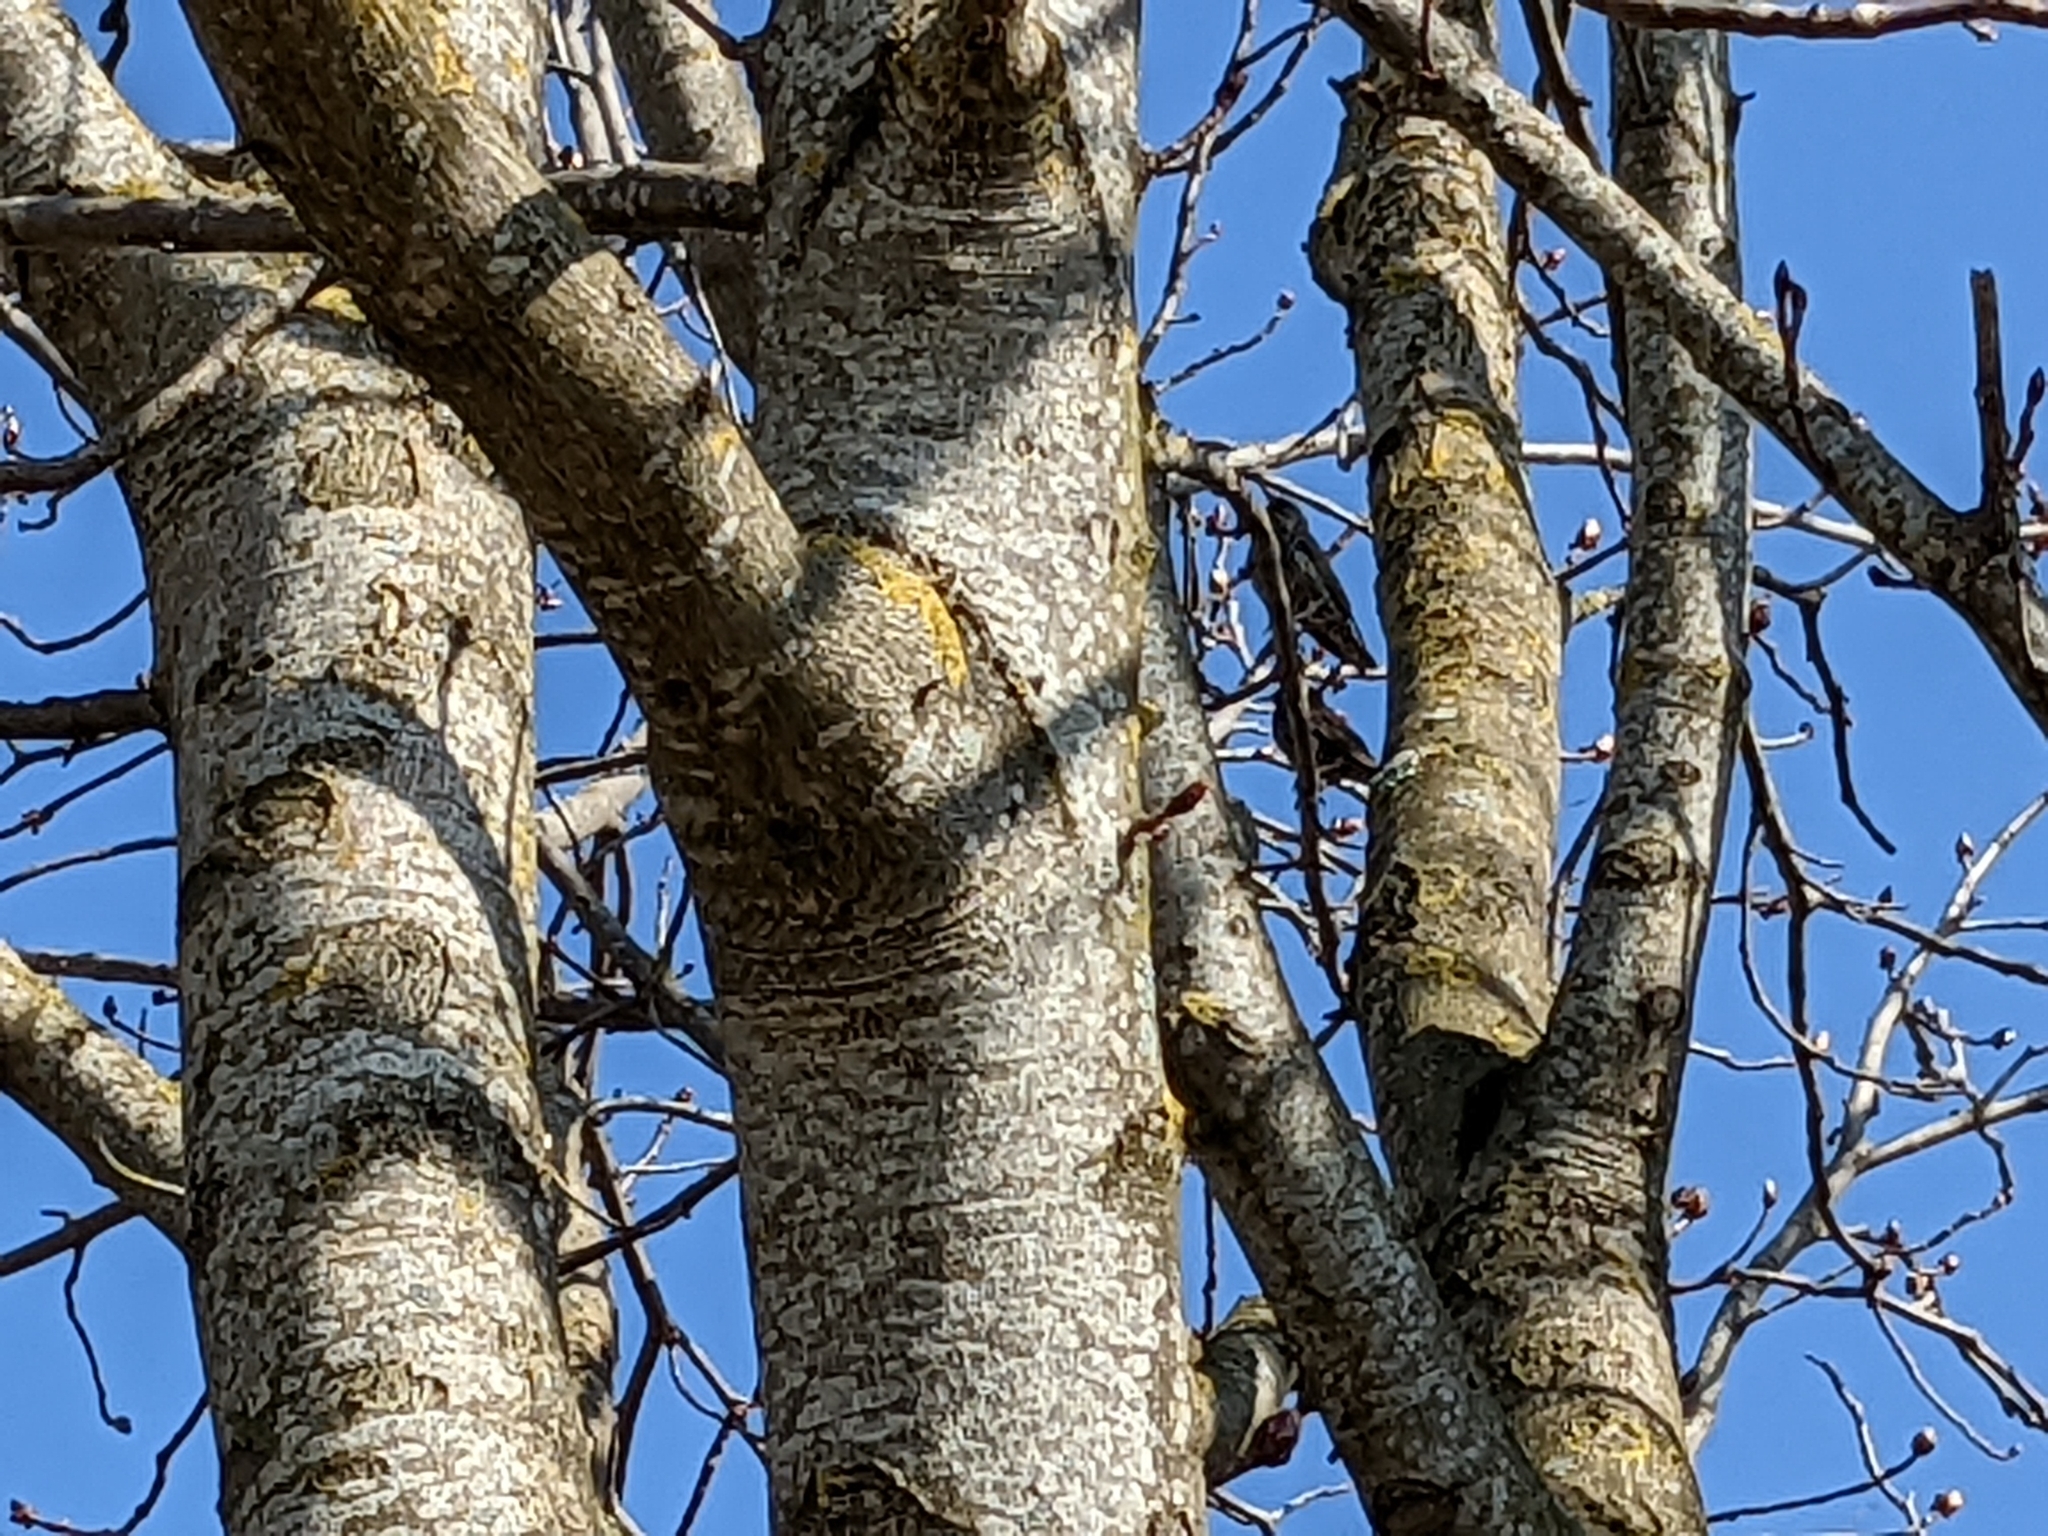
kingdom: Animalia
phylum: Chordata
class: Aves
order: Passeriformes
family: Sturnidae
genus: Sturnus
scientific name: Sturnus vulgaris
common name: Common starling
